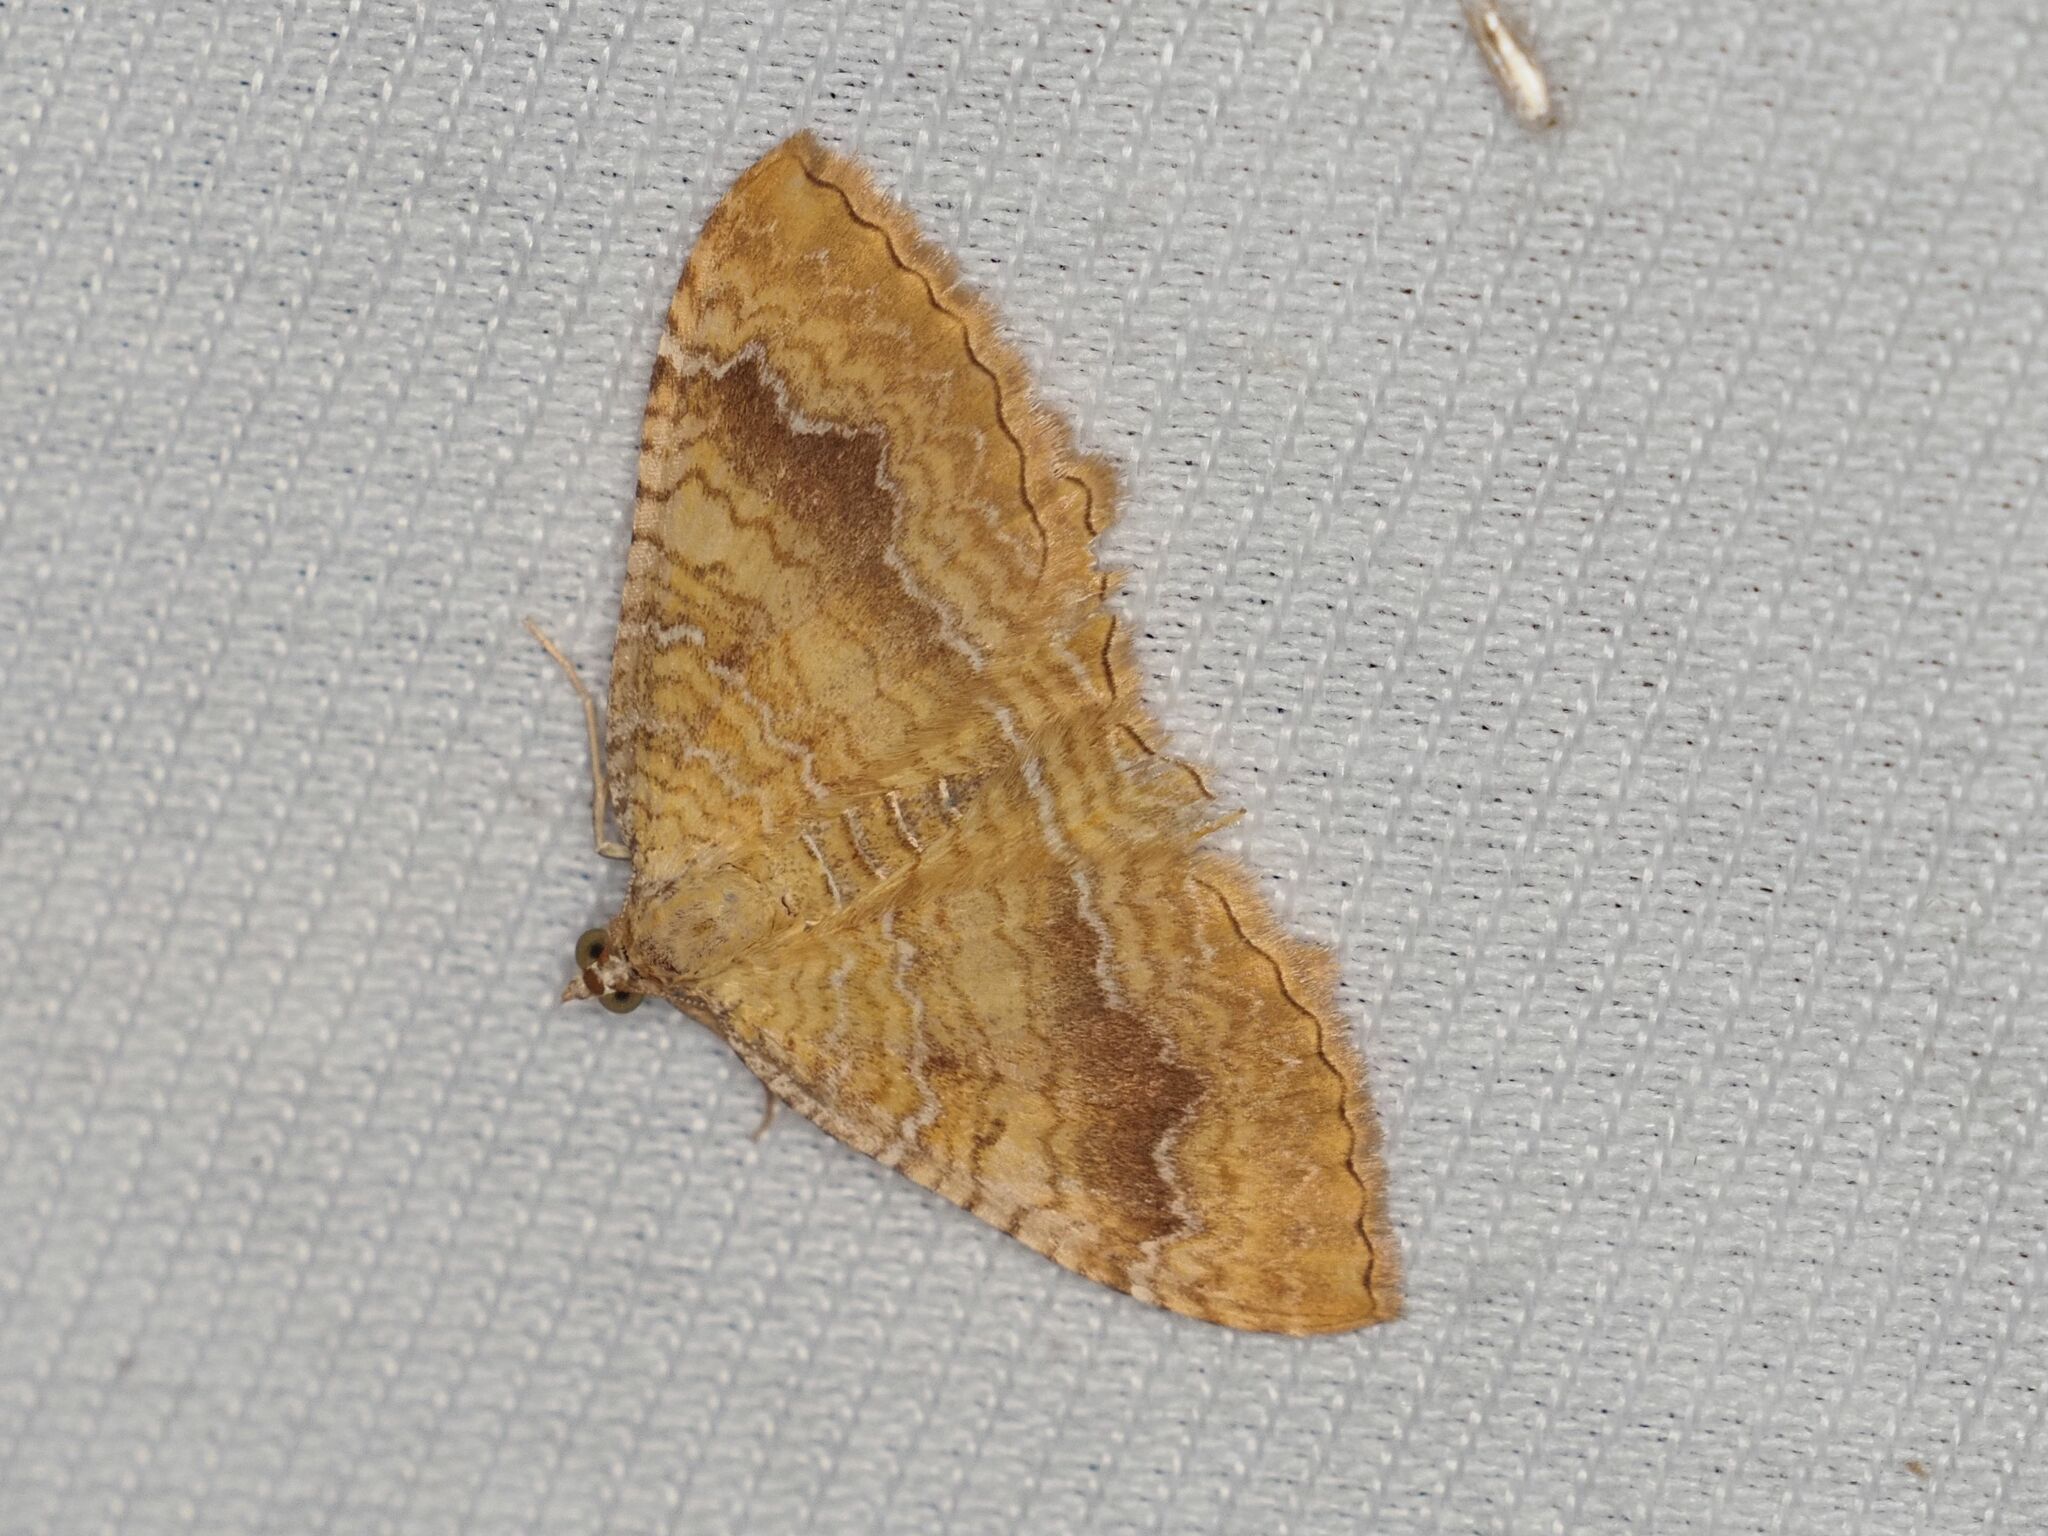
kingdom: Animalia
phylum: Arthropoda
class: Insecta
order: Lepidoptera
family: Geometridae
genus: Camptogramma
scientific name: Camptogramma bilineata
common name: Yellow shell
